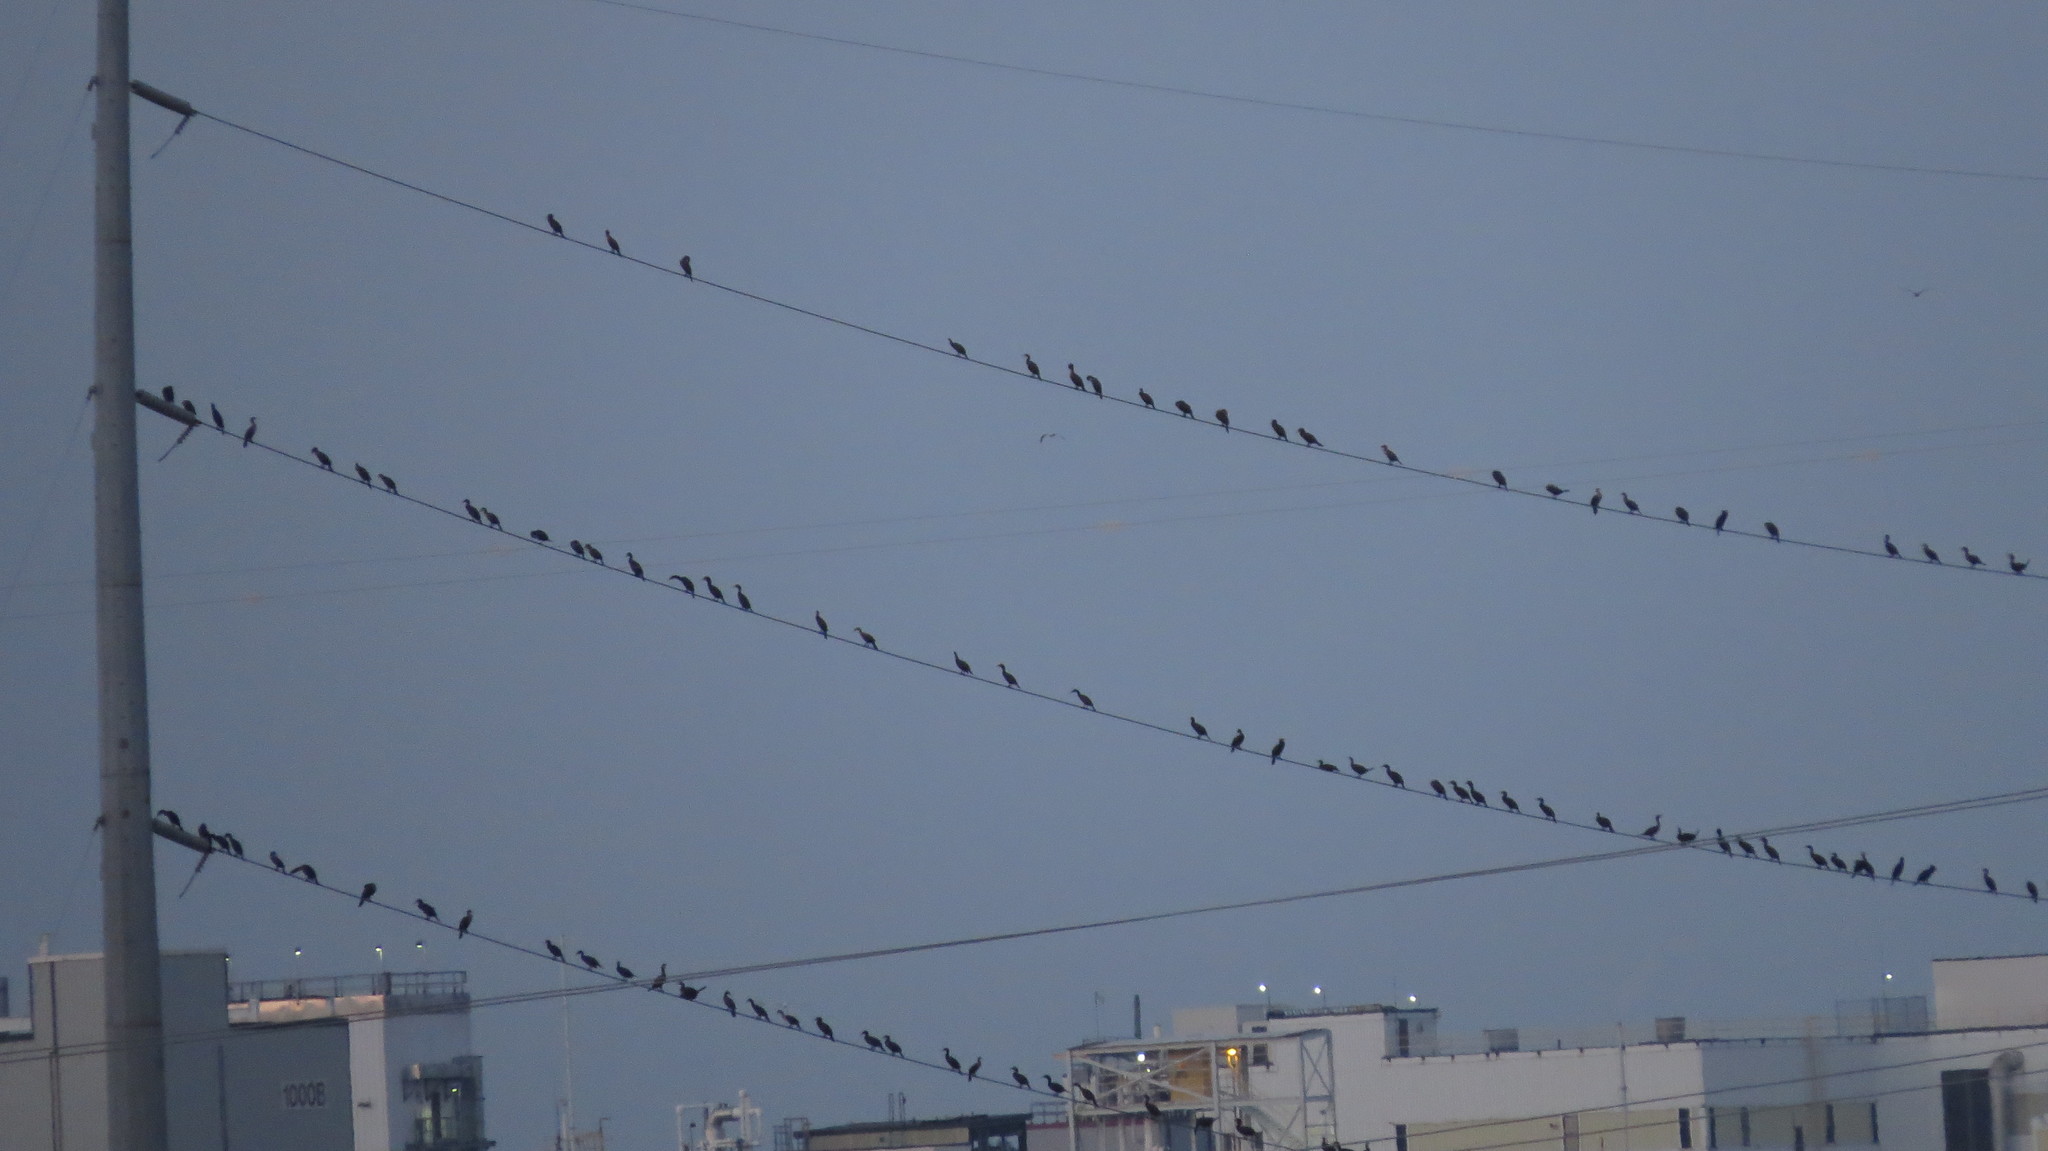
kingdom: Animalia
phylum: Chordata
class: Aves
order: Suliformes
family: Phalacrocoracidae
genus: Phalacrocorax
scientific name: Phalacrocorax auritus
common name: Double-crested cormorant
